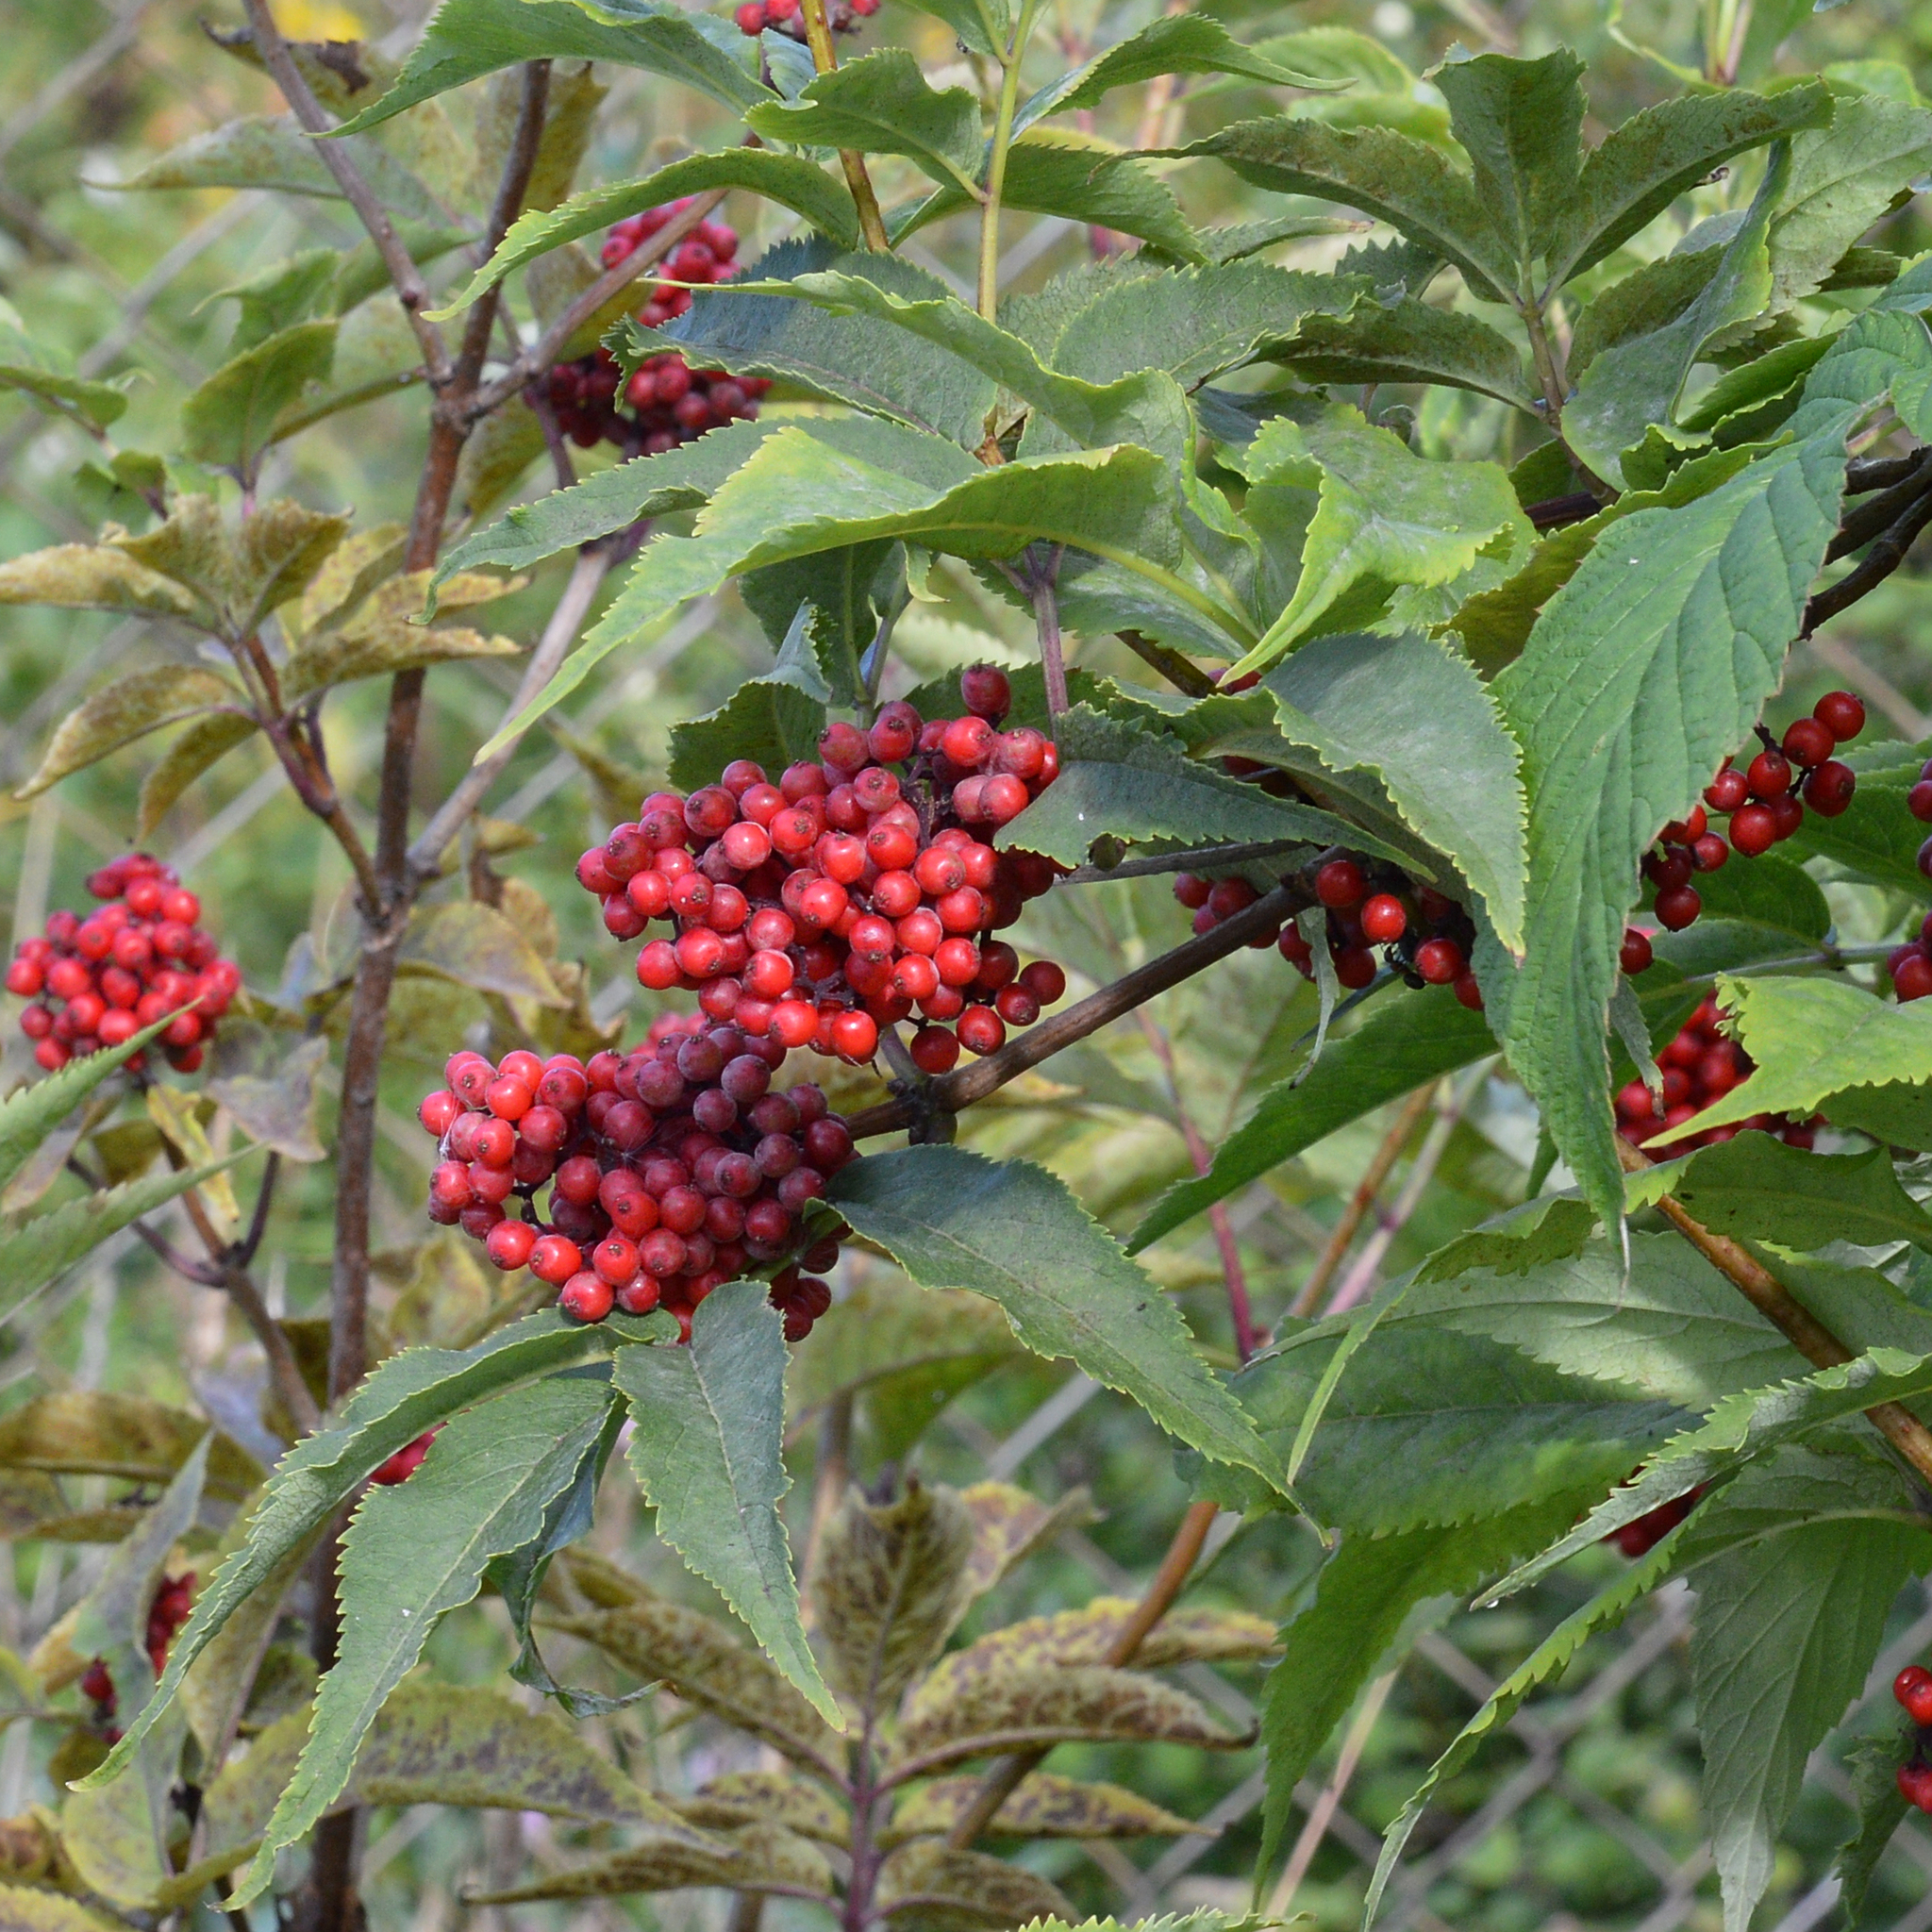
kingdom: Plantae
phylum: Tracheophyta
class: Magnoliopsida
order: Dipsacales
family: Viburnaceae
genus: Sambucus
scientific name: Sambucus racemosa
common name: Red-berried elder
